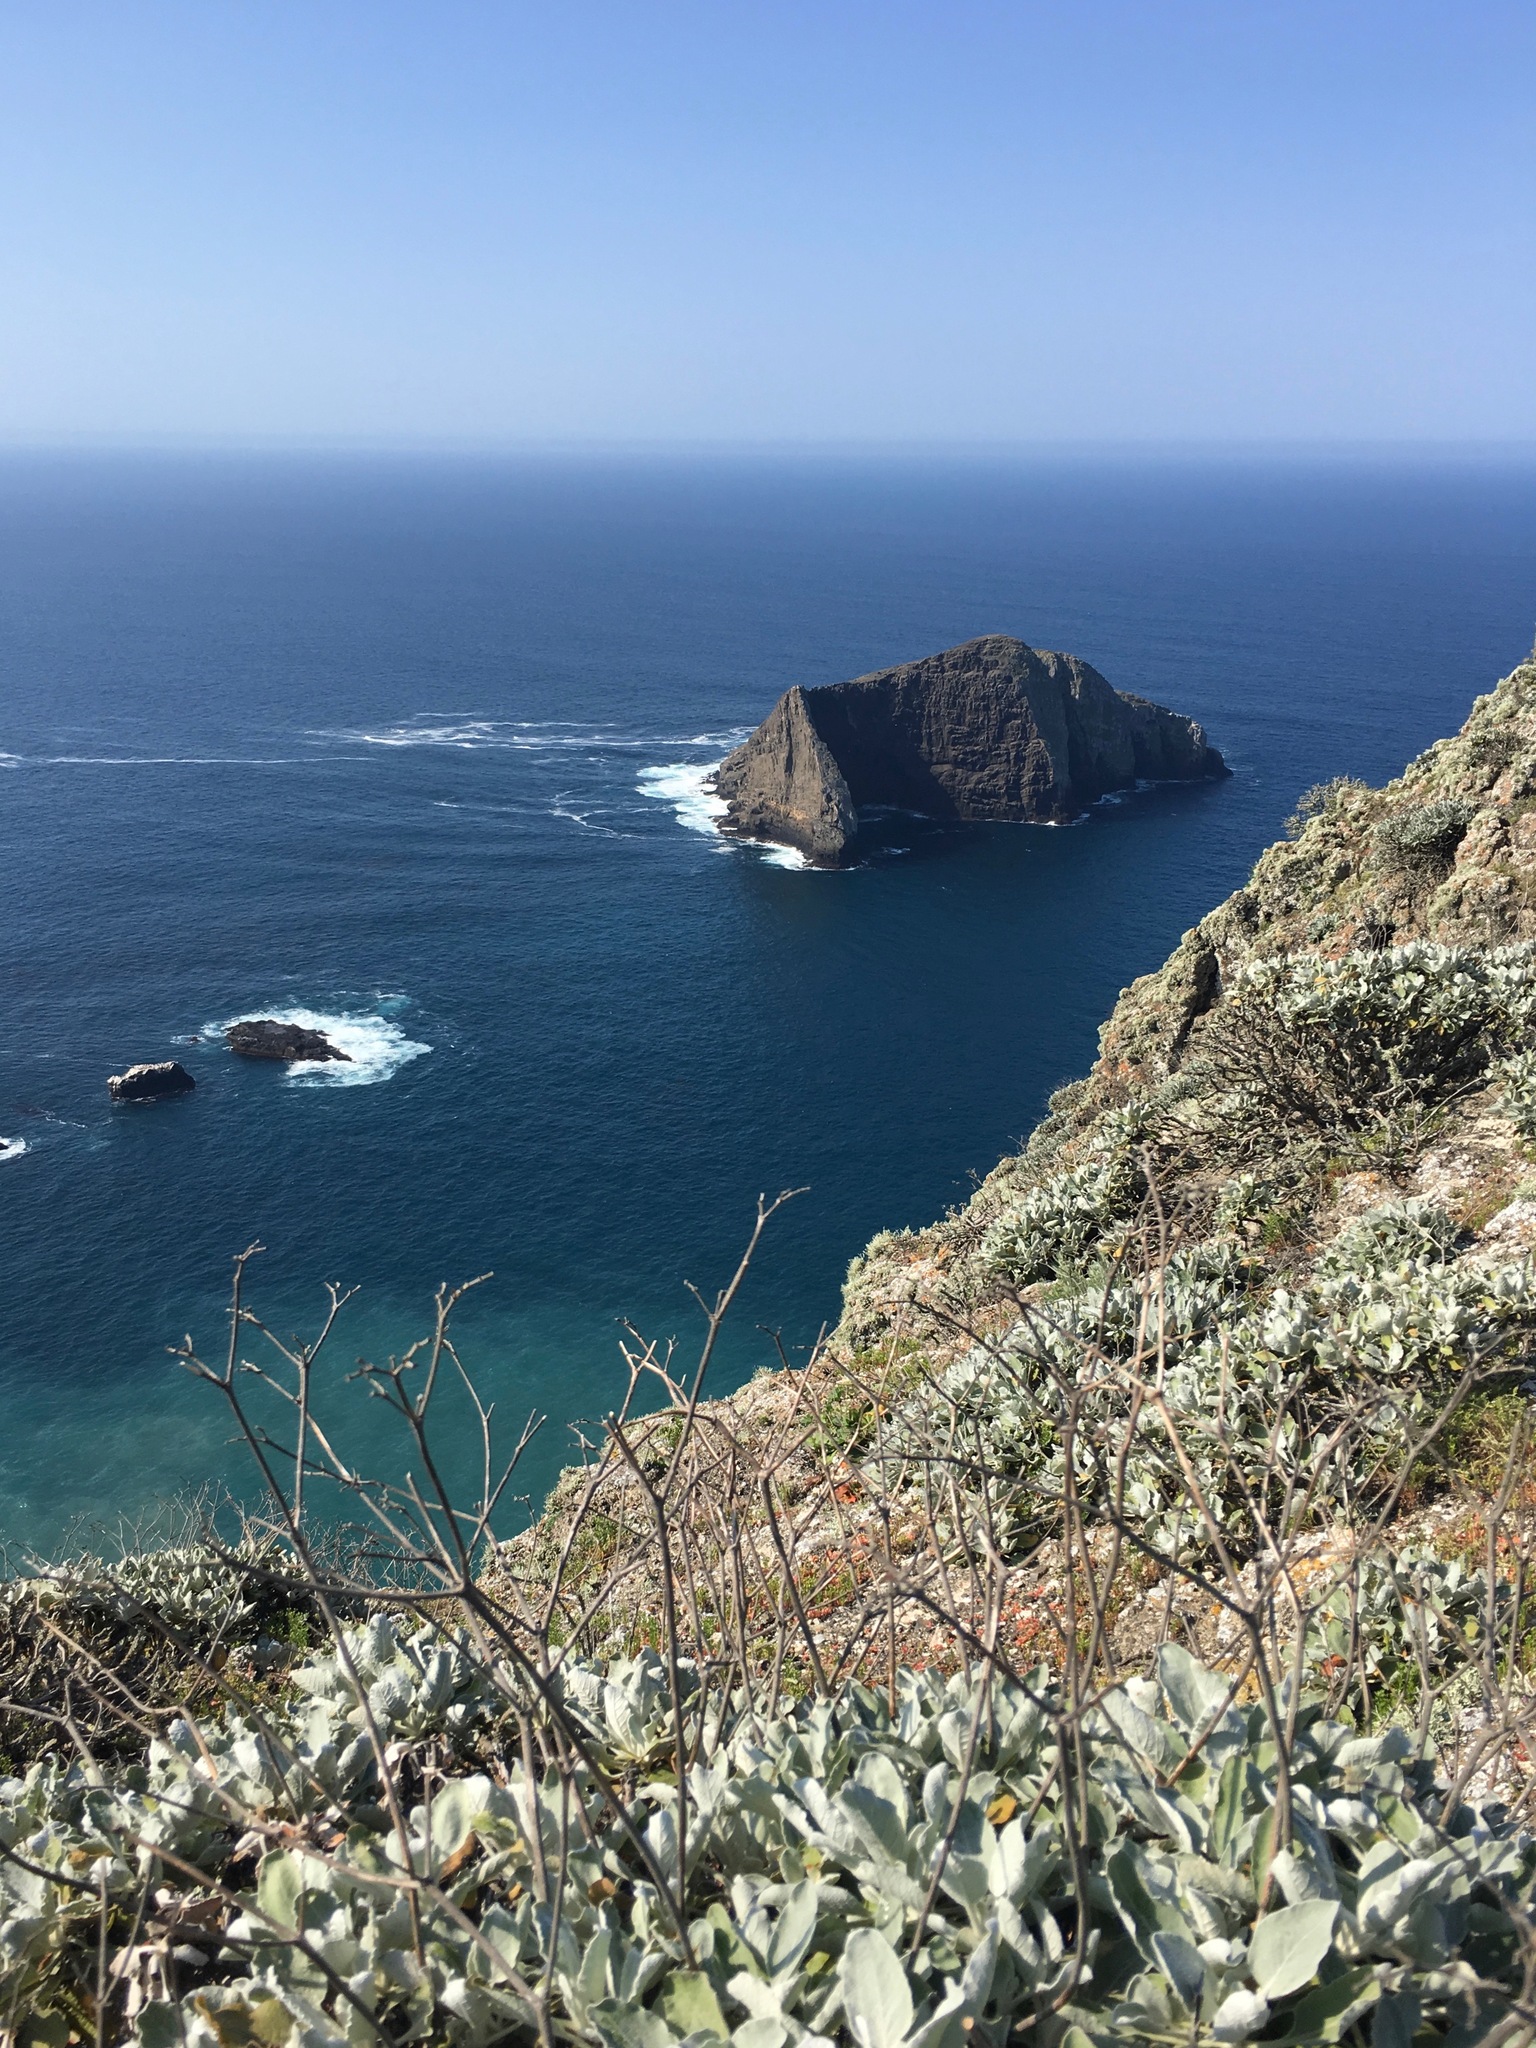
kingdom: Plantae
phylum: Tracheophyta
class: Magnoliopsida
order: Caryophyllales
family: Polygonaceae
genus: Eriogonum
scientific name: Eriogonum giganteum
